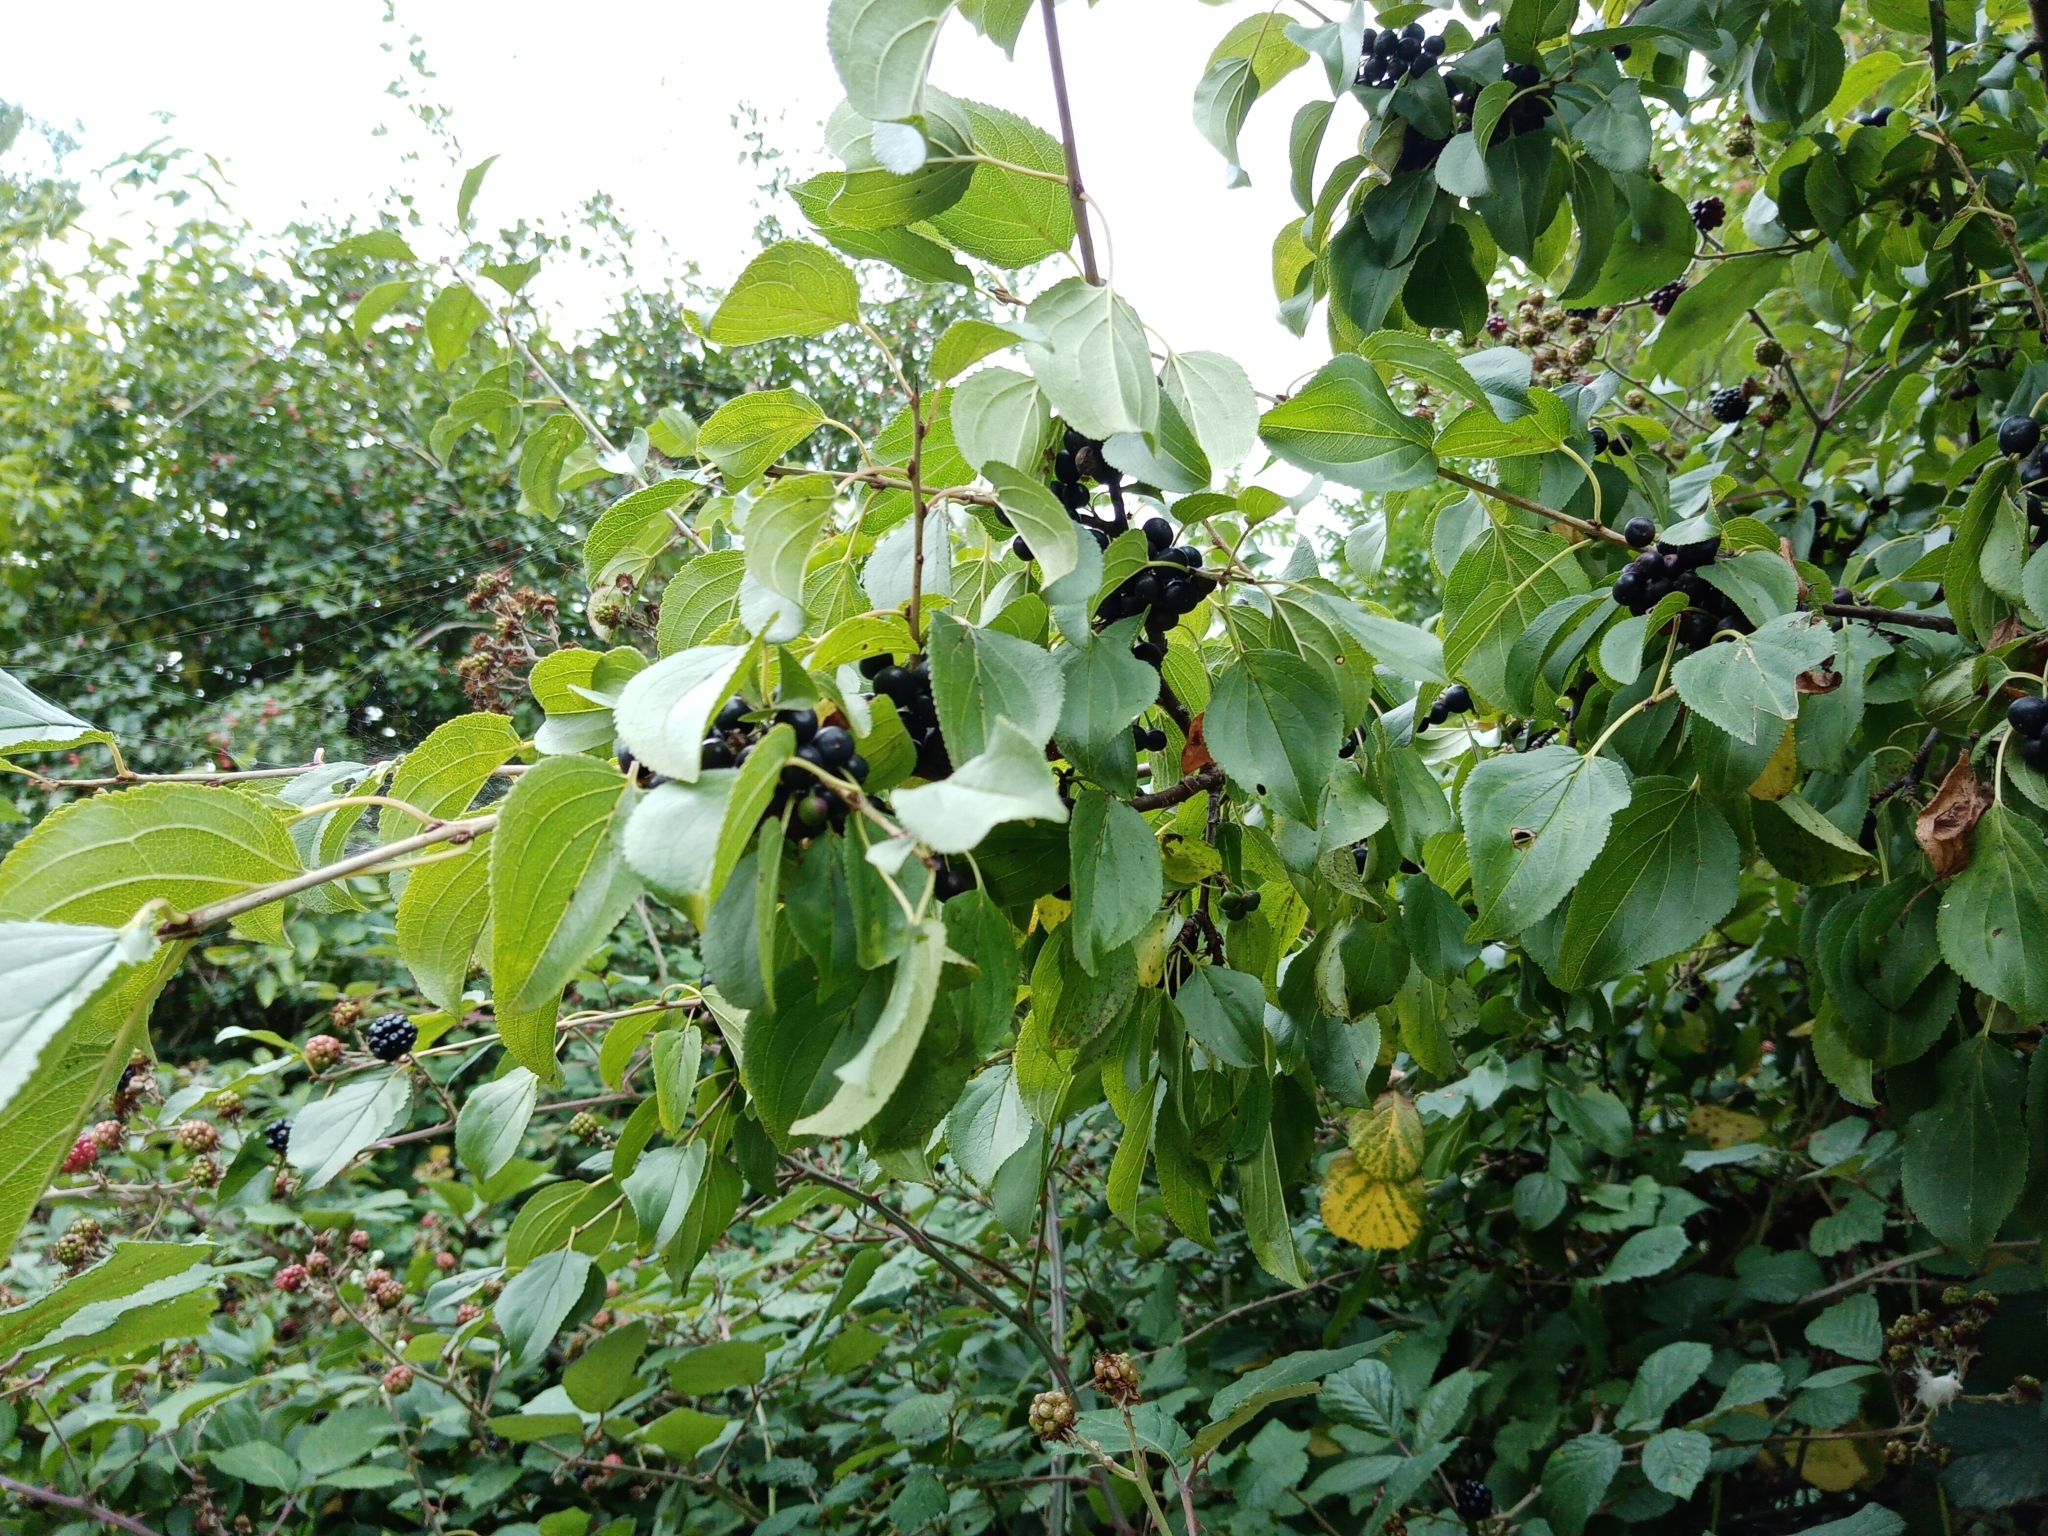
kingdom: Plantae
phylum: Tracheophyta
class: Magnoliopsida
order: Rosales
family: Rhamnaceae
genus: Rhamnus
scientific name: Rhamnus cathartica
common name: Common buckthorn
